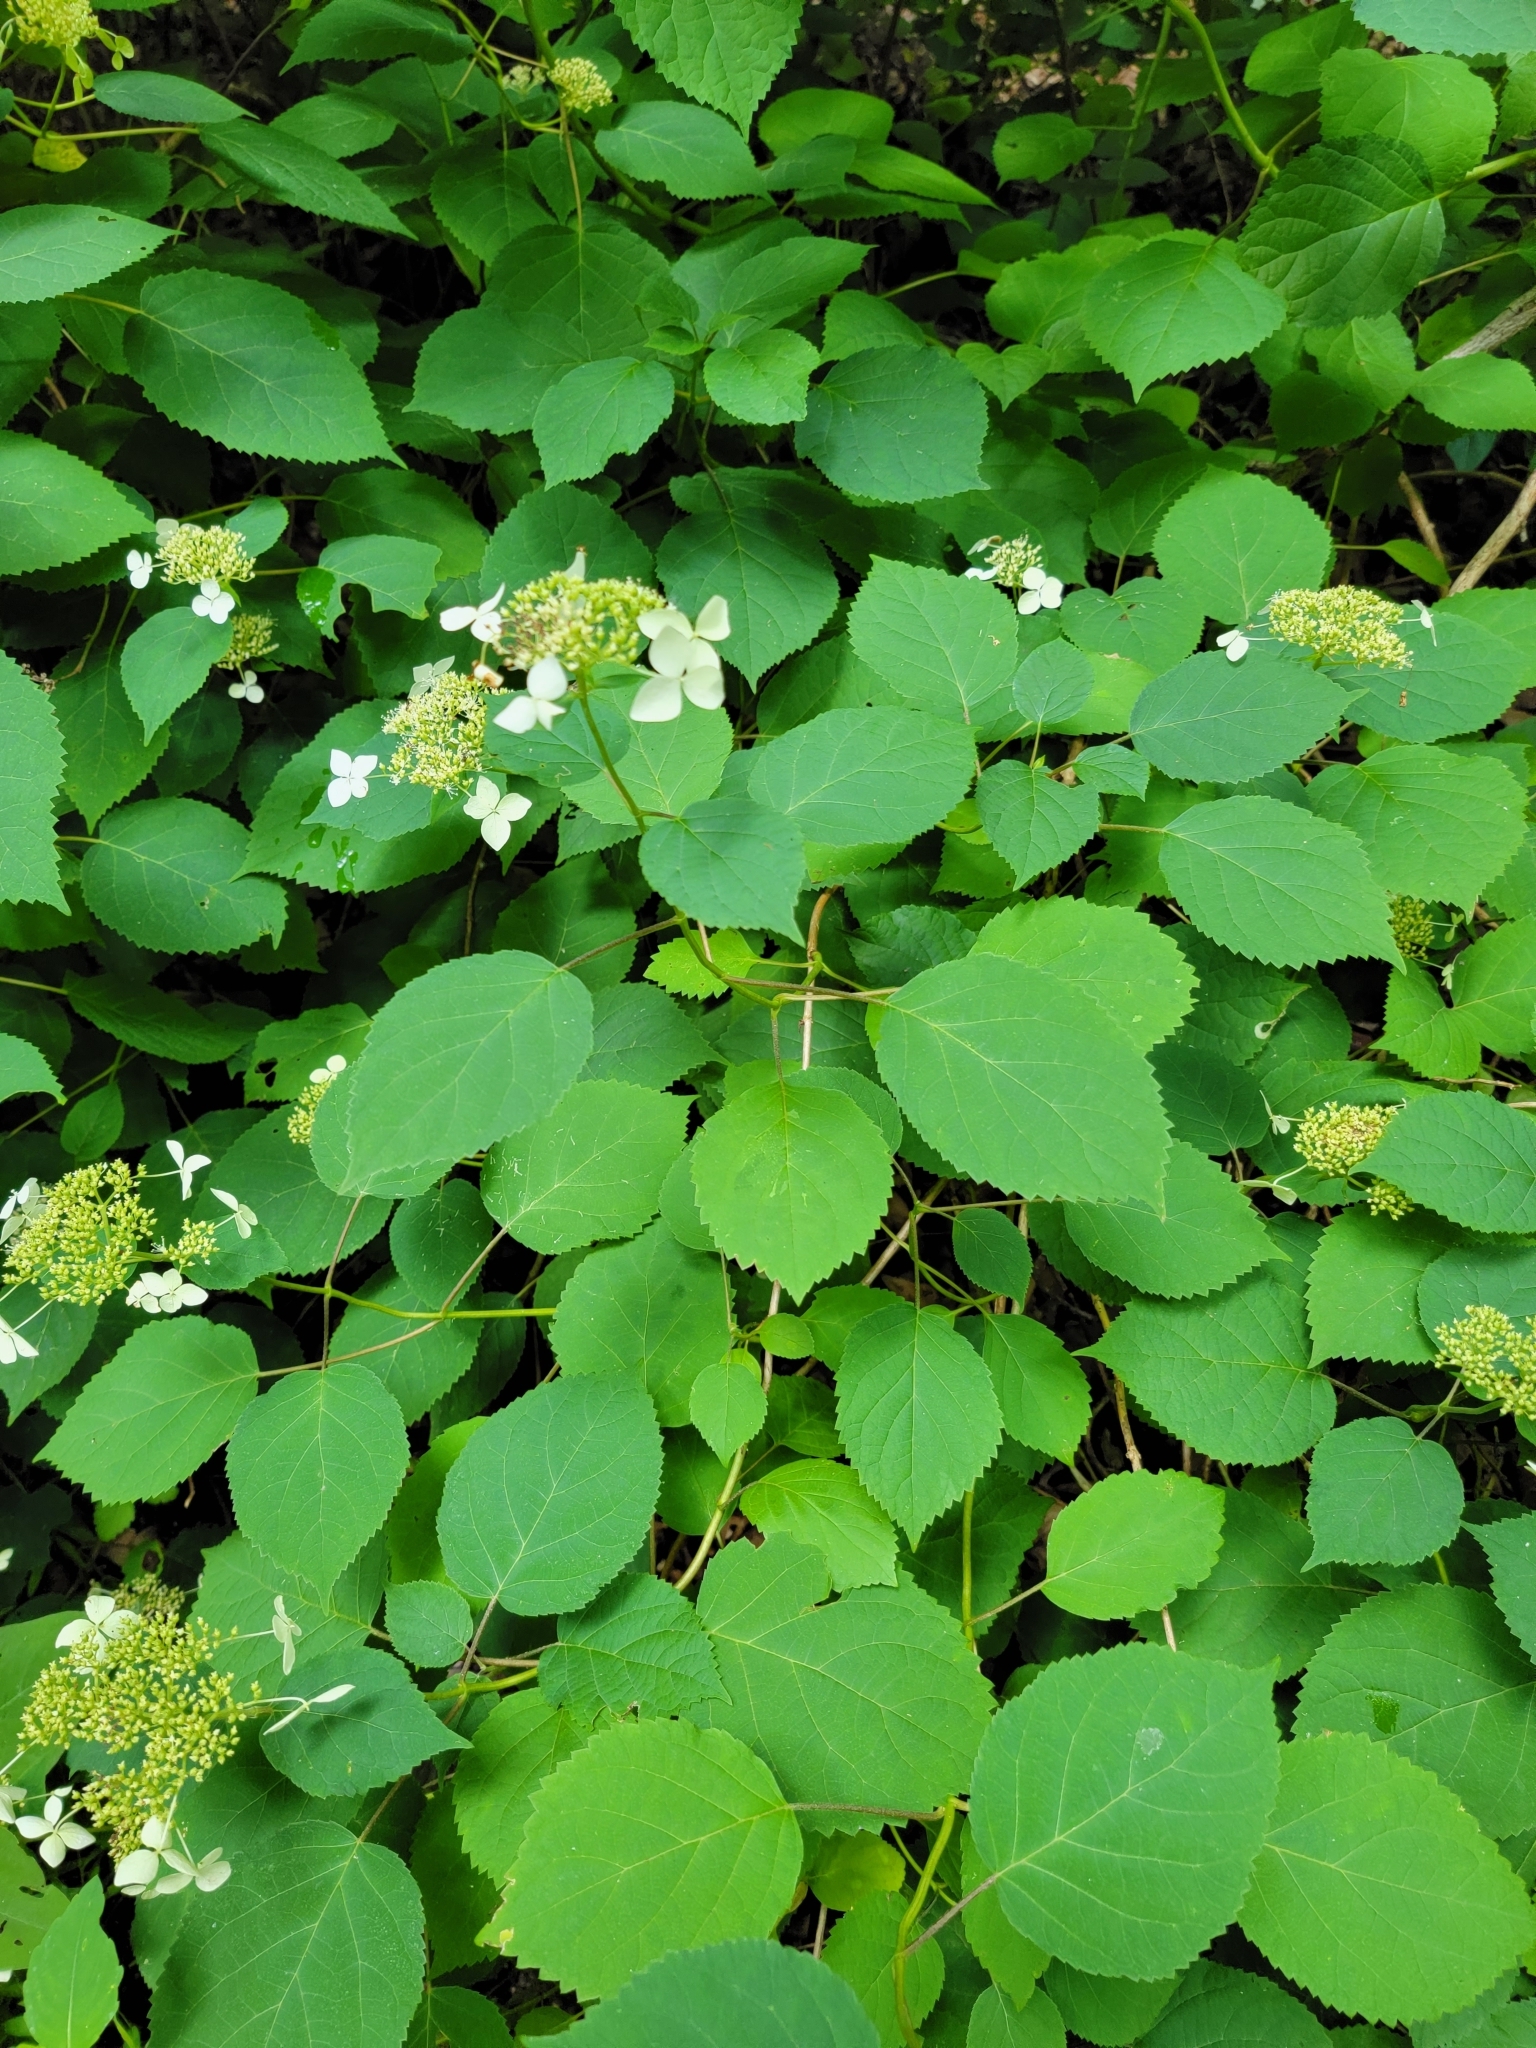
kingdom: Plantae
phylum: Tracheophyta
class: Magnoliopsida
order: Cornales
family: Hydrangeaceae
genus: Hydrangea
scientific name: Hydrangea arborescens
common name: Sevenbark
